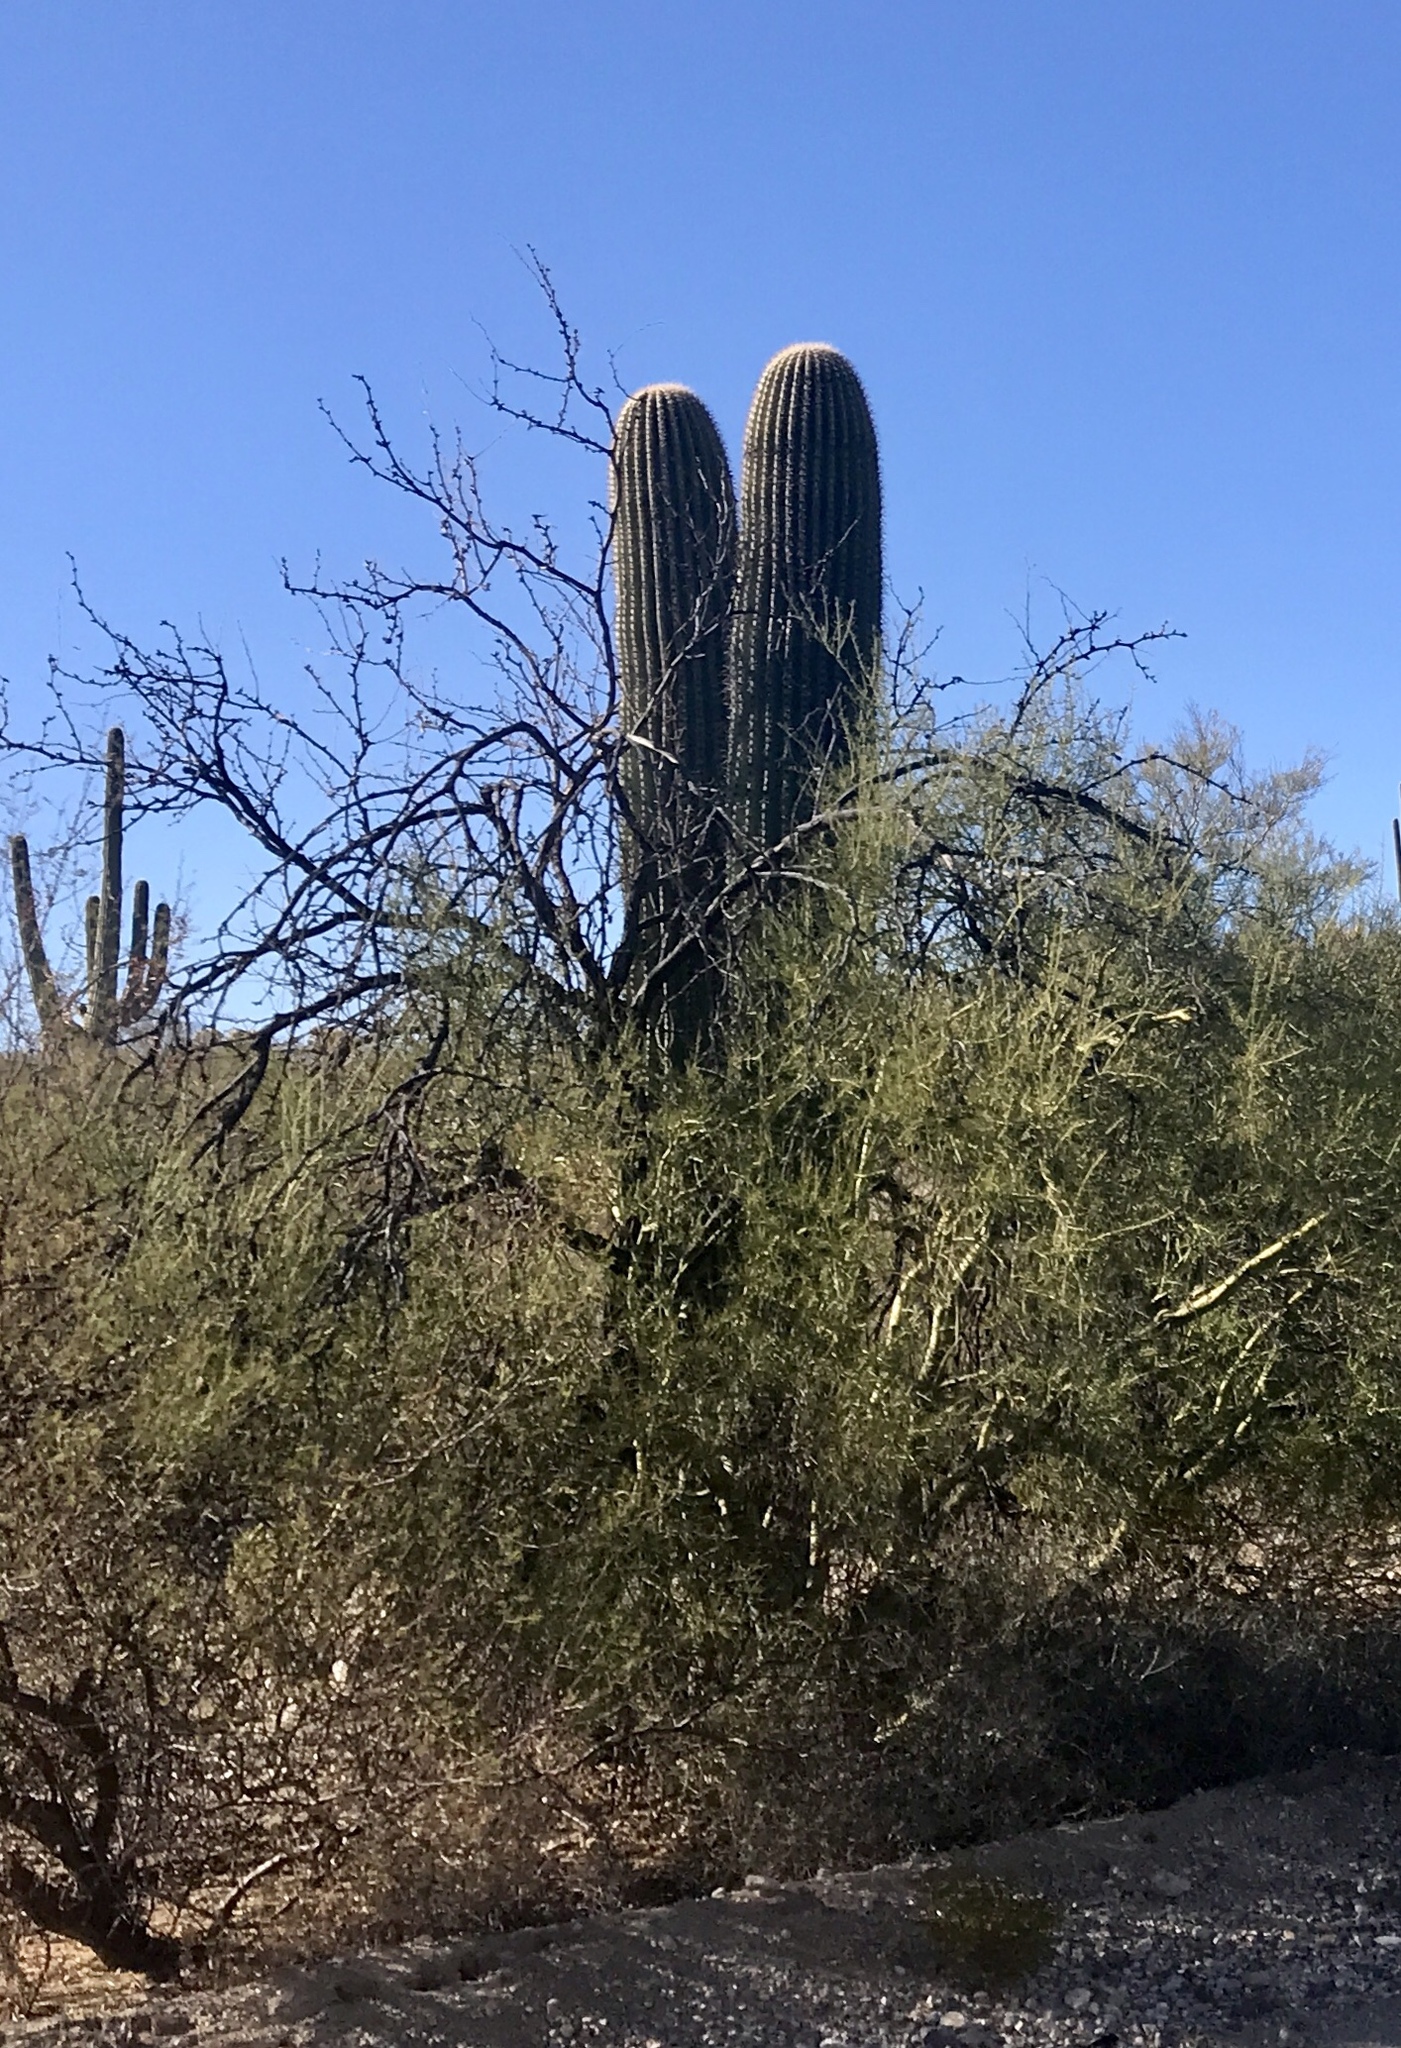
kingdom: Plantae
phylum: Tracheophyta
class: Magnoliopsida
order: Caryophyllales
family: Cactaceae
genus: Carnegiea
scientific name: Carnegiea gigantea
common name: Saguaro
